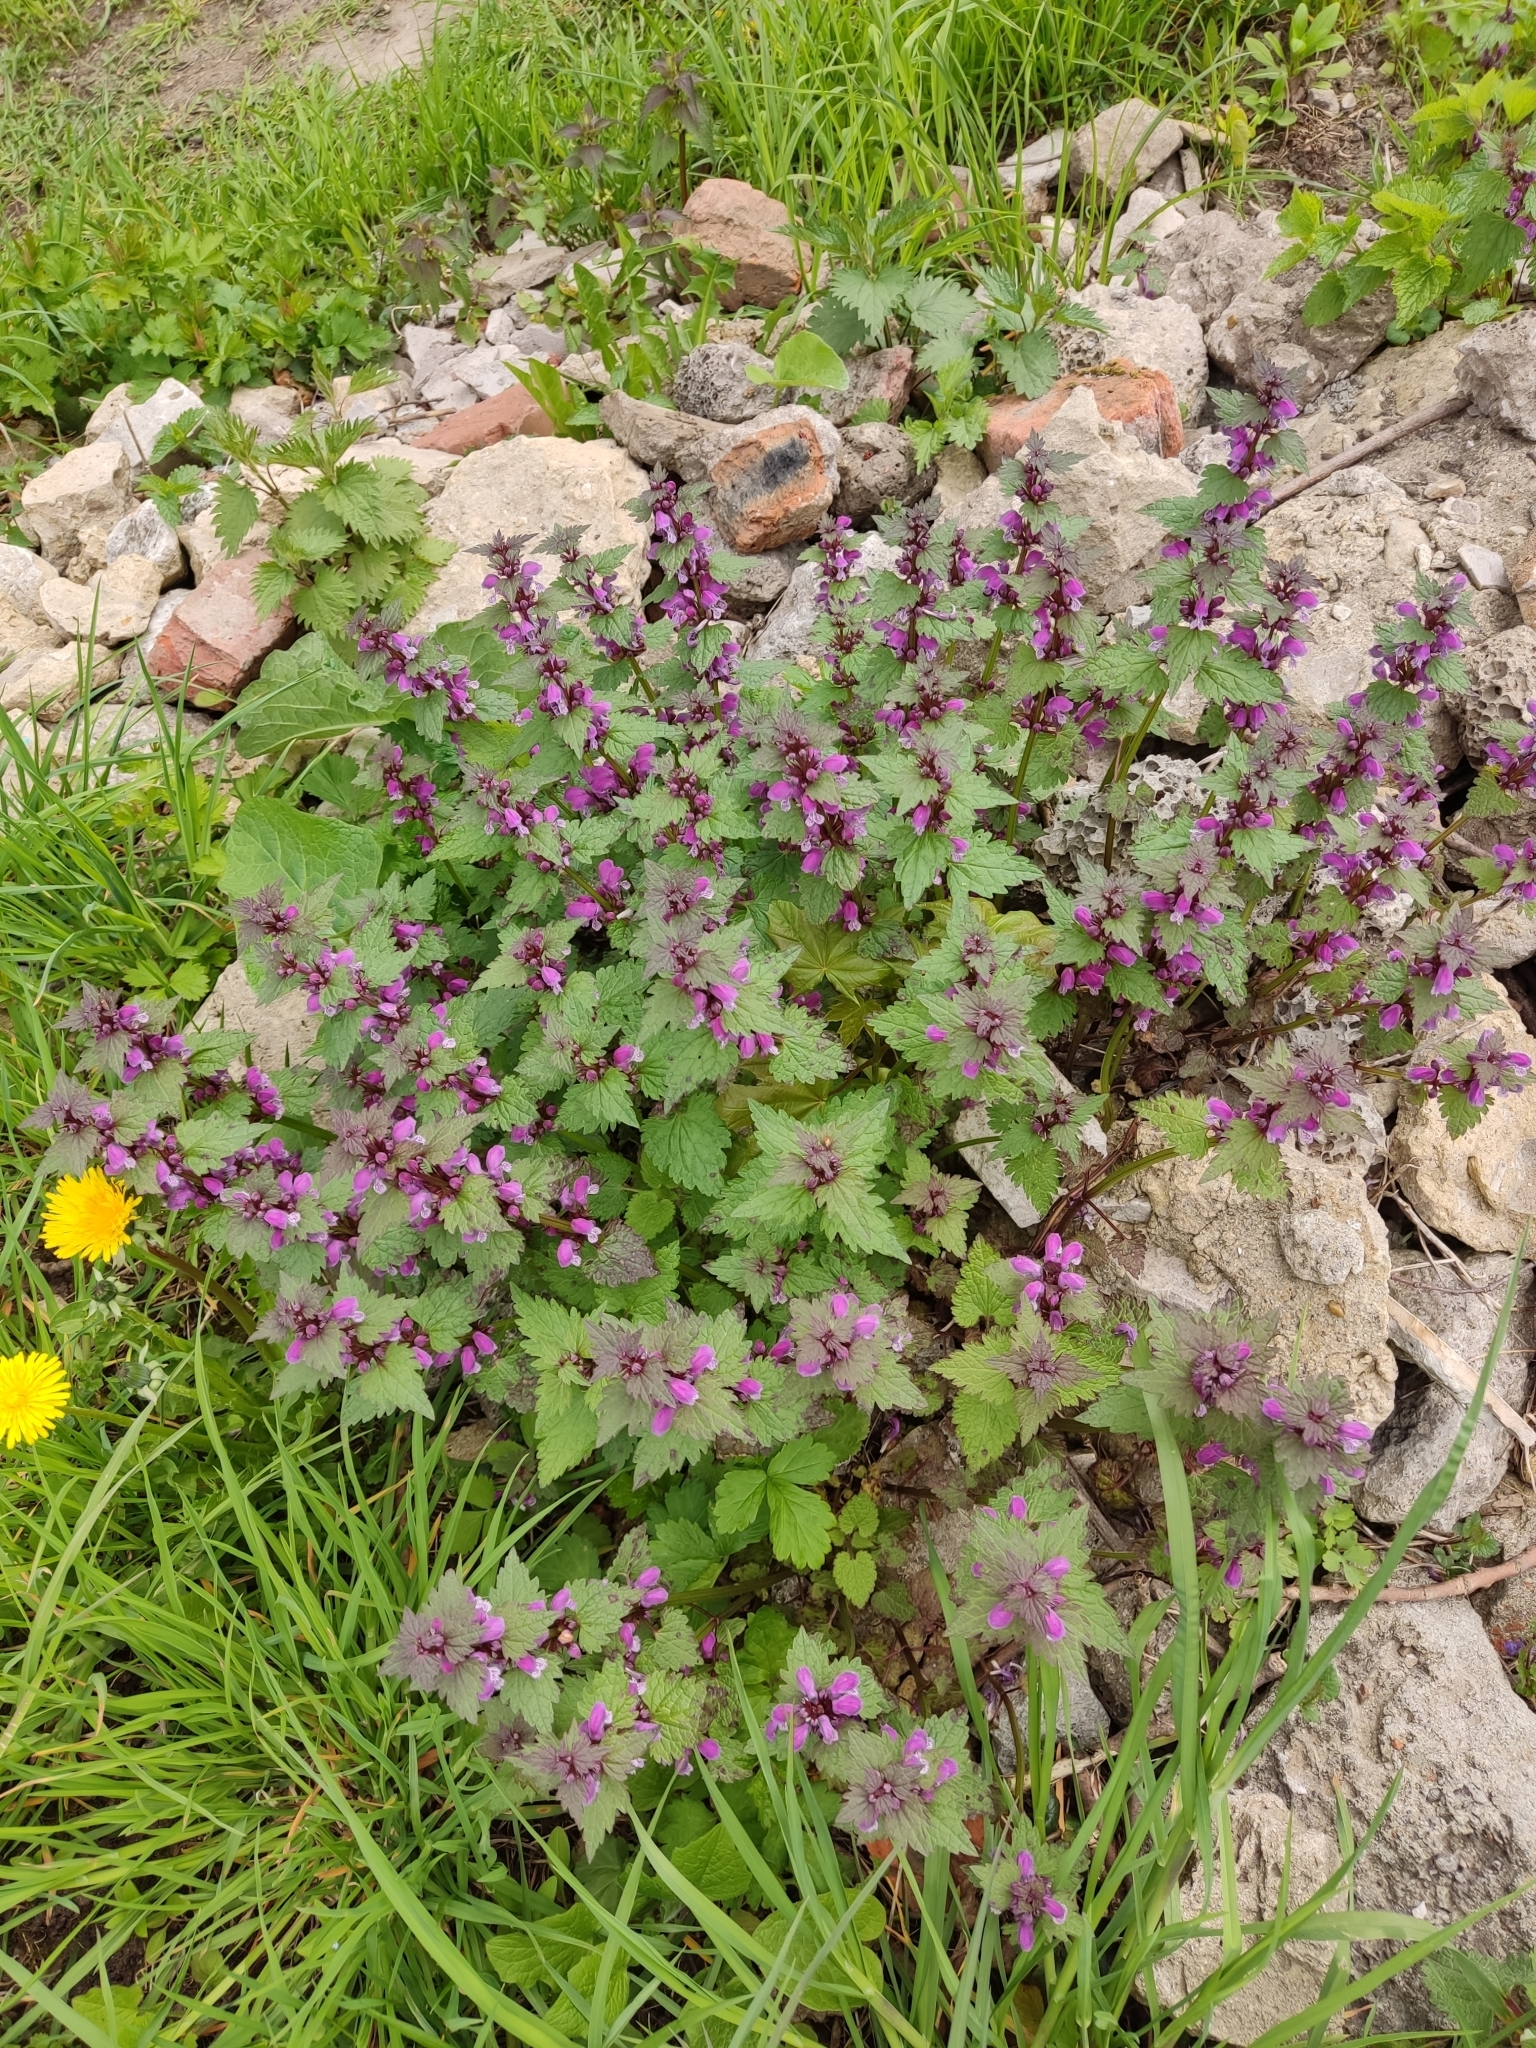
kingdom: Plantae
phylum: Tracheophyta
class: Magnoliopsida
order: Lamiales
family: Lamiaceae
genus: Lamium
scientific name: Lamium maculatum
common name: Spotted dead-nettle
